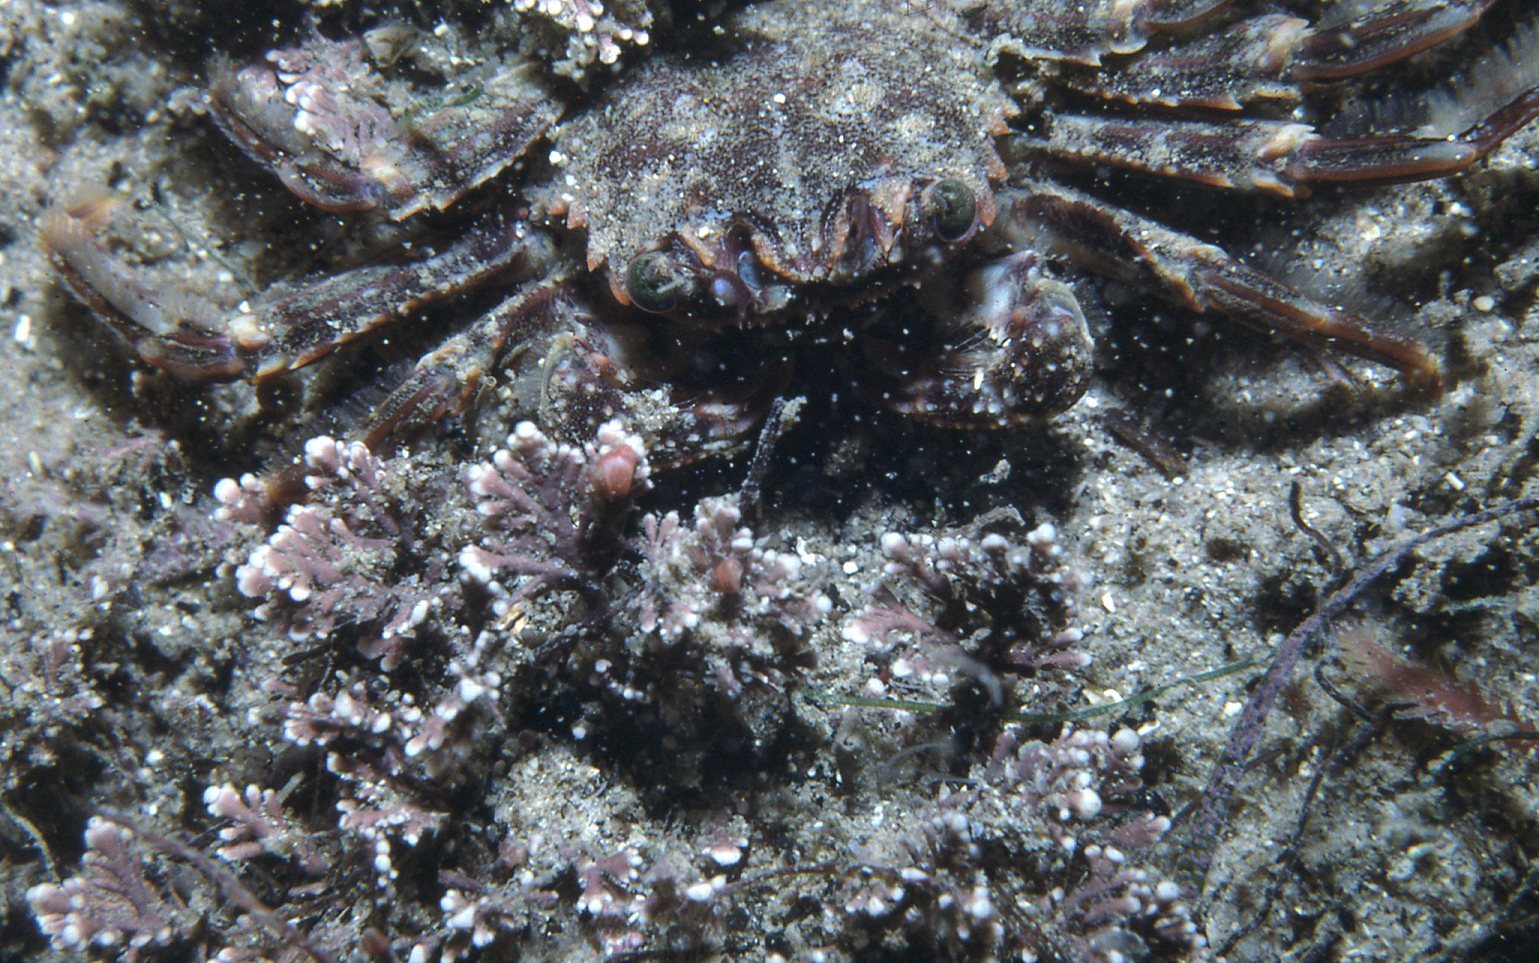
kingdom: Animalia
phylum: Arthropoda
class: Malacostraca
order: Decapoda
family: Plagusiidae
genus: Guinusia
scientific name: Guinusia chabrus
